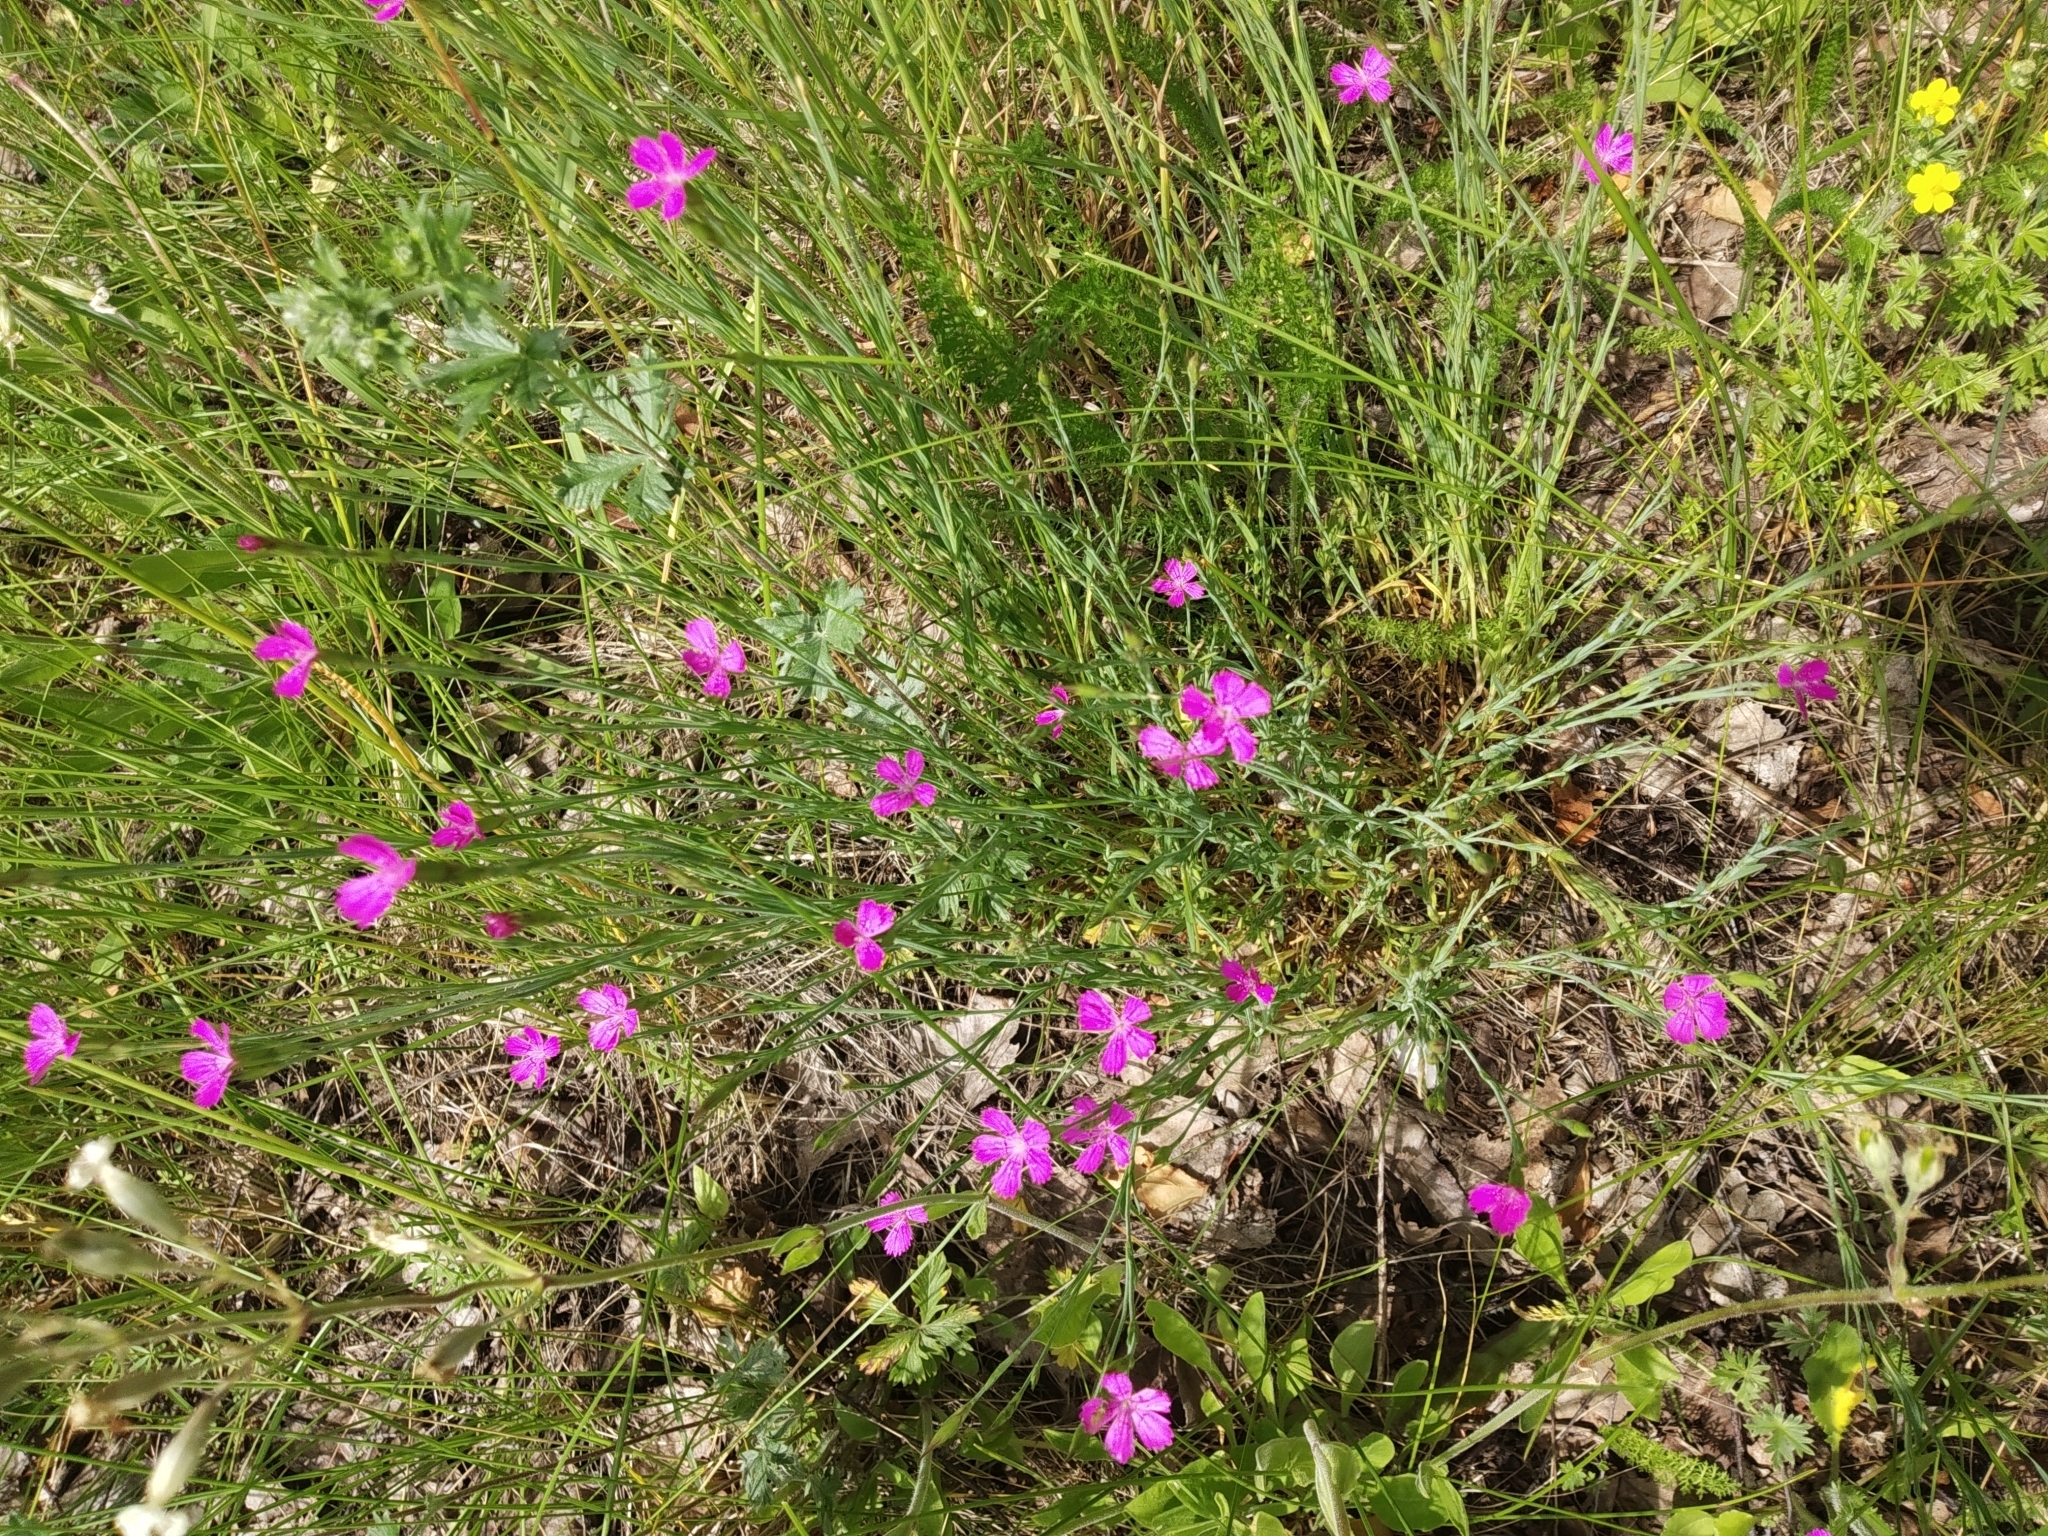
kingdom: Plantae
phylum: Tracheophyta
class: Magnoliopsida
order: Caryophyllales
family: Caryophyllaceae
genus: Dianthus
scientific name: Dianthus deltoides
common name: Maiden pink
